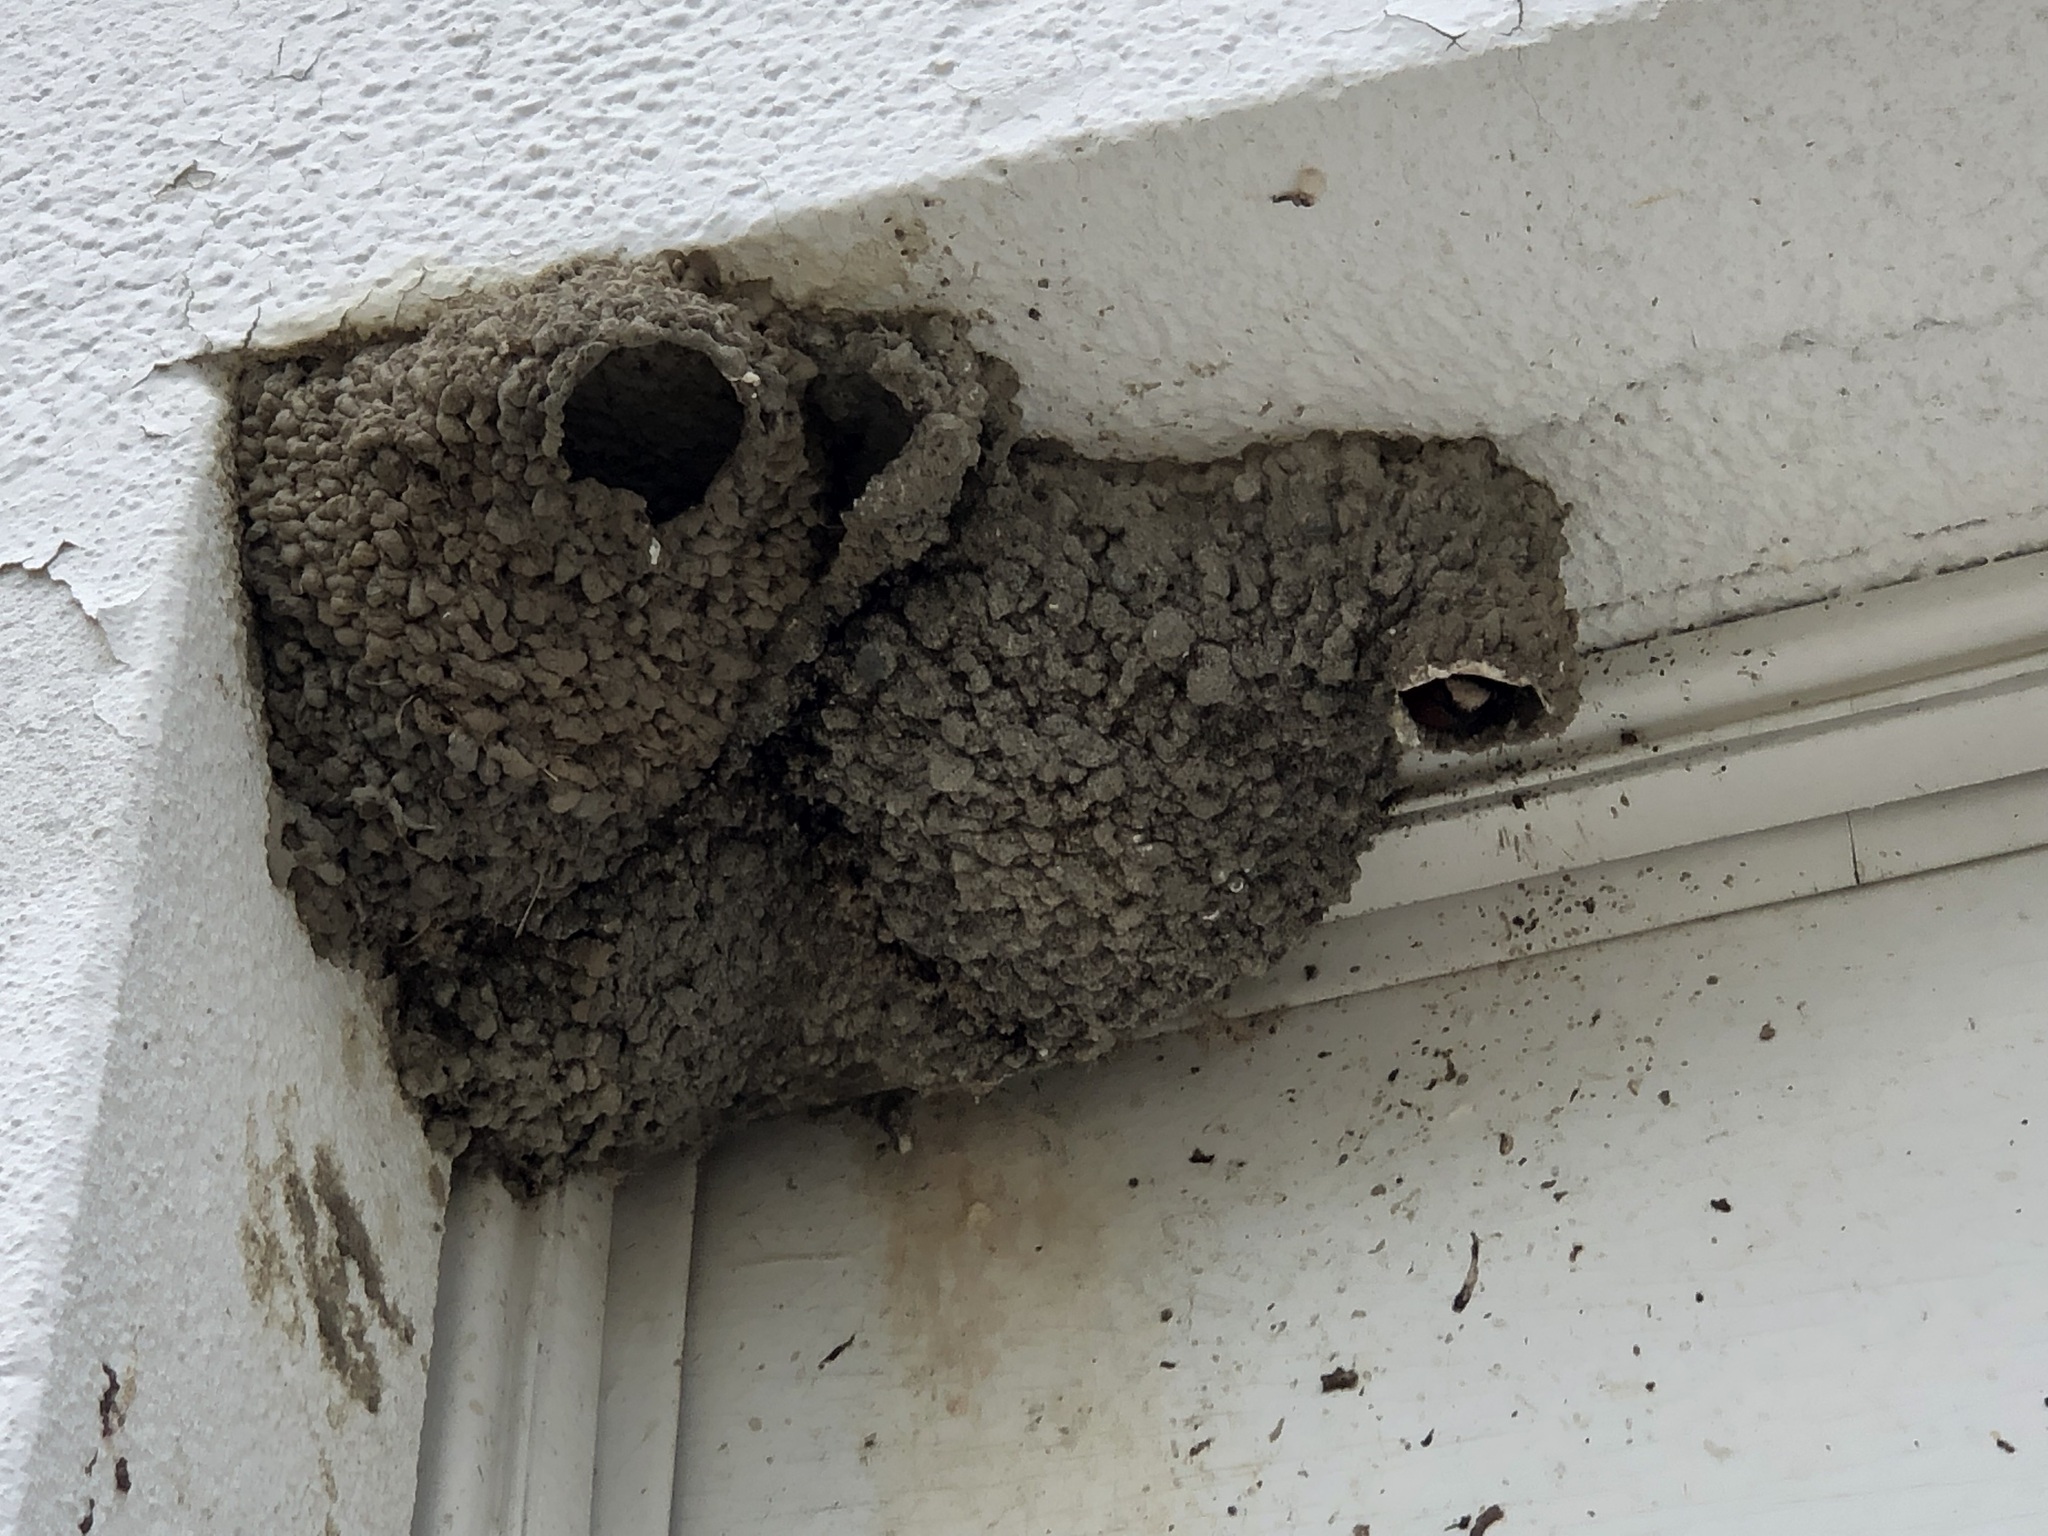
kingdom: Animalia
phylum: Chordata
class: Aves
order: Passeriformes
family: Hirundinidae
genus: Petrochelidon
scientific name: Petrochelidon pyrrhonota
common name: American cliff swallow
